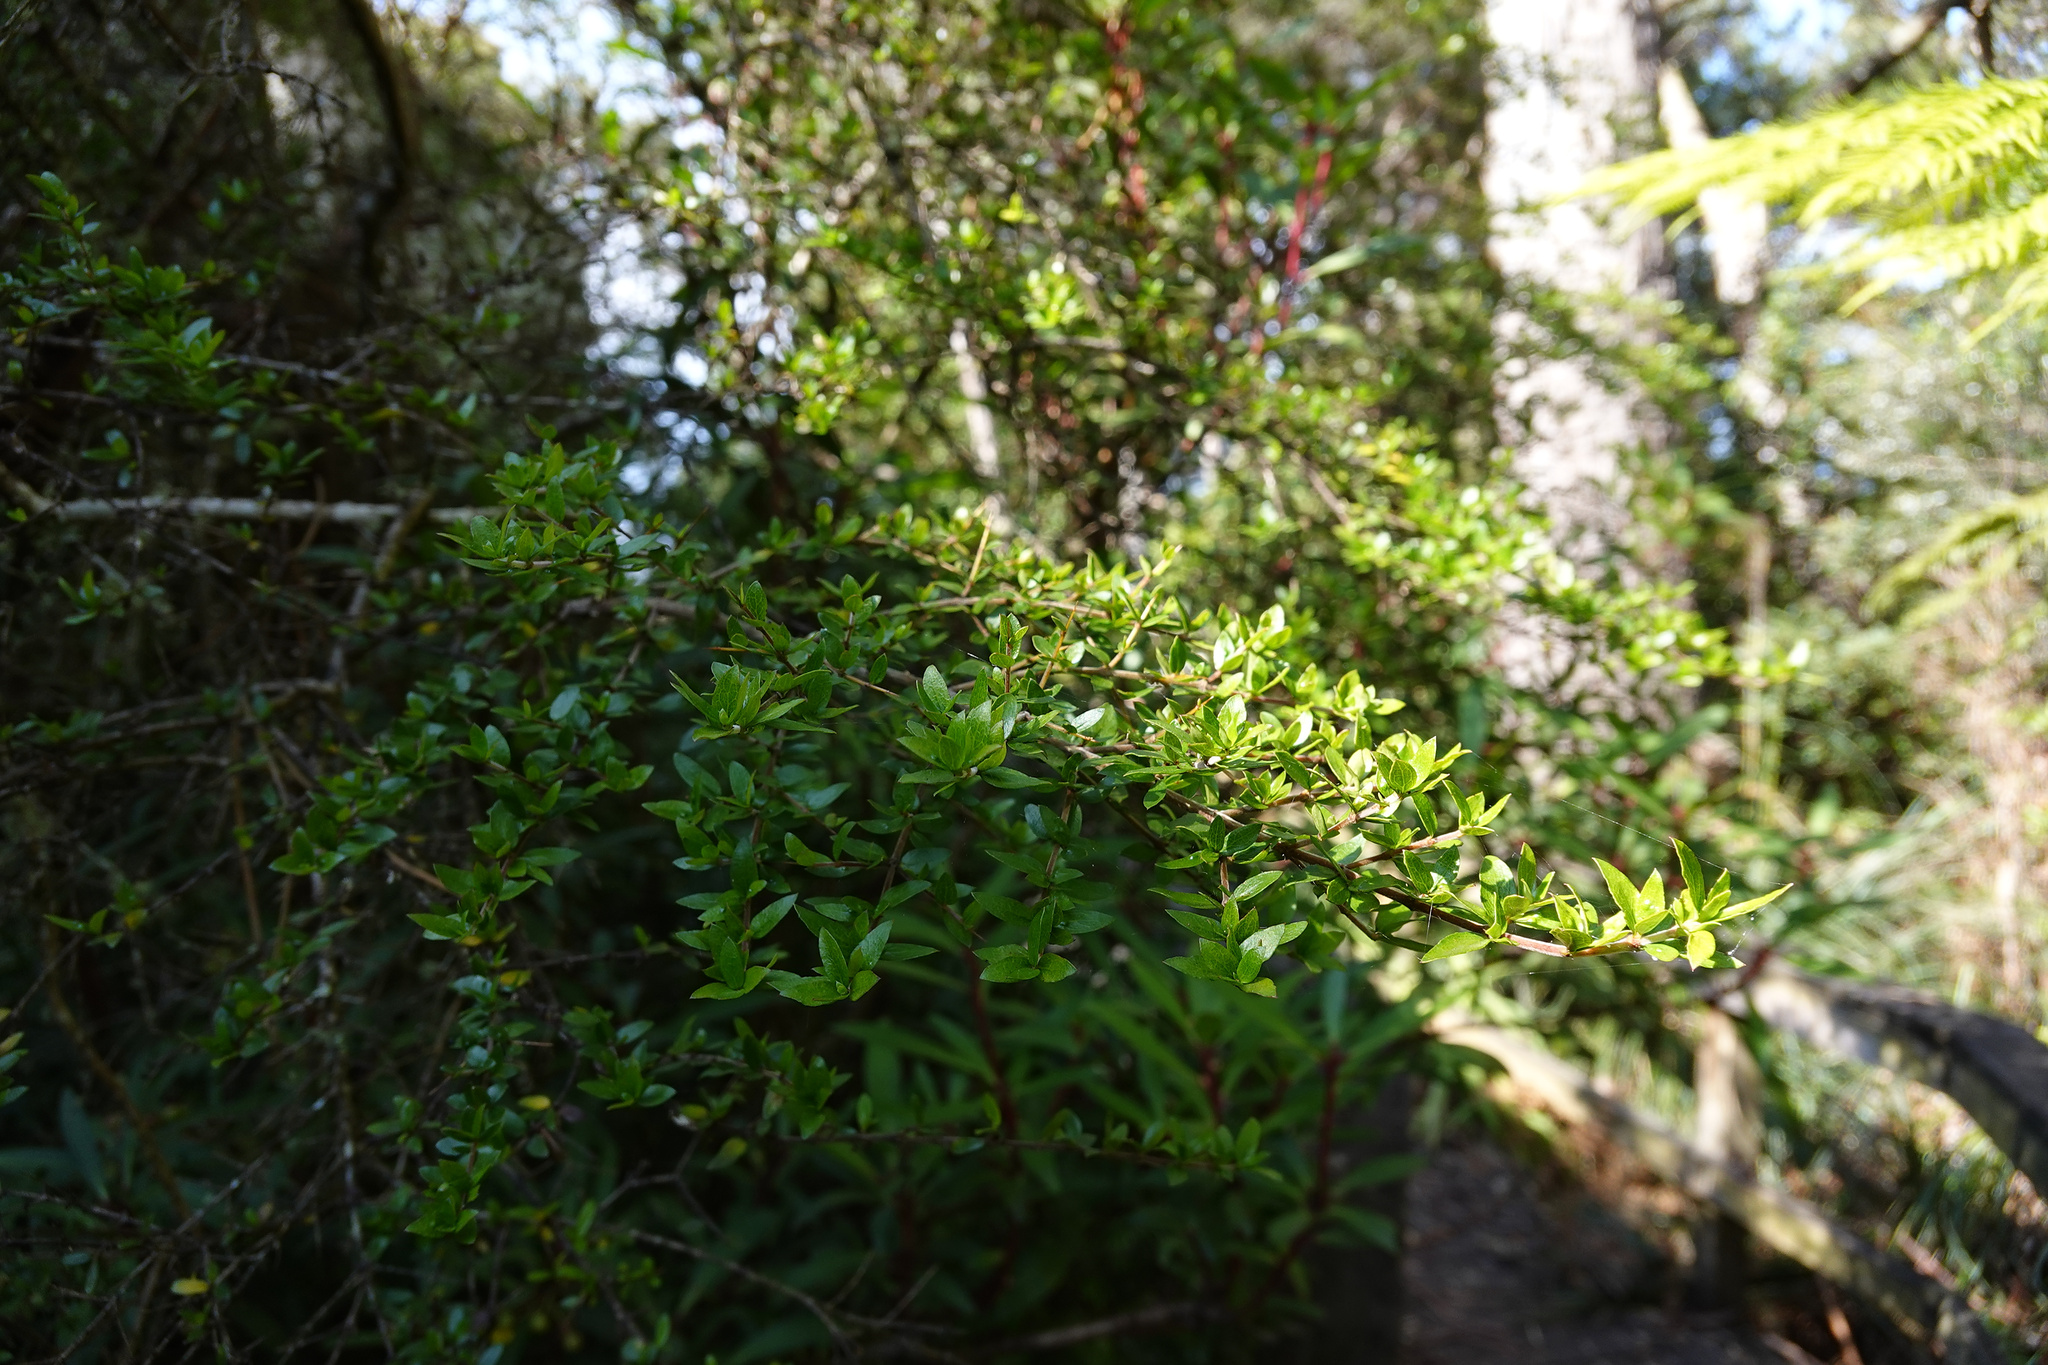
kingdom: Plantae
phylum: Tracheophyta
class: Magnoliopsida
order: Gentianales
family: Rubiaceae
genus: Coprosma
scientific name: Coprosma quadrifida
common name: Prickly currantbush
